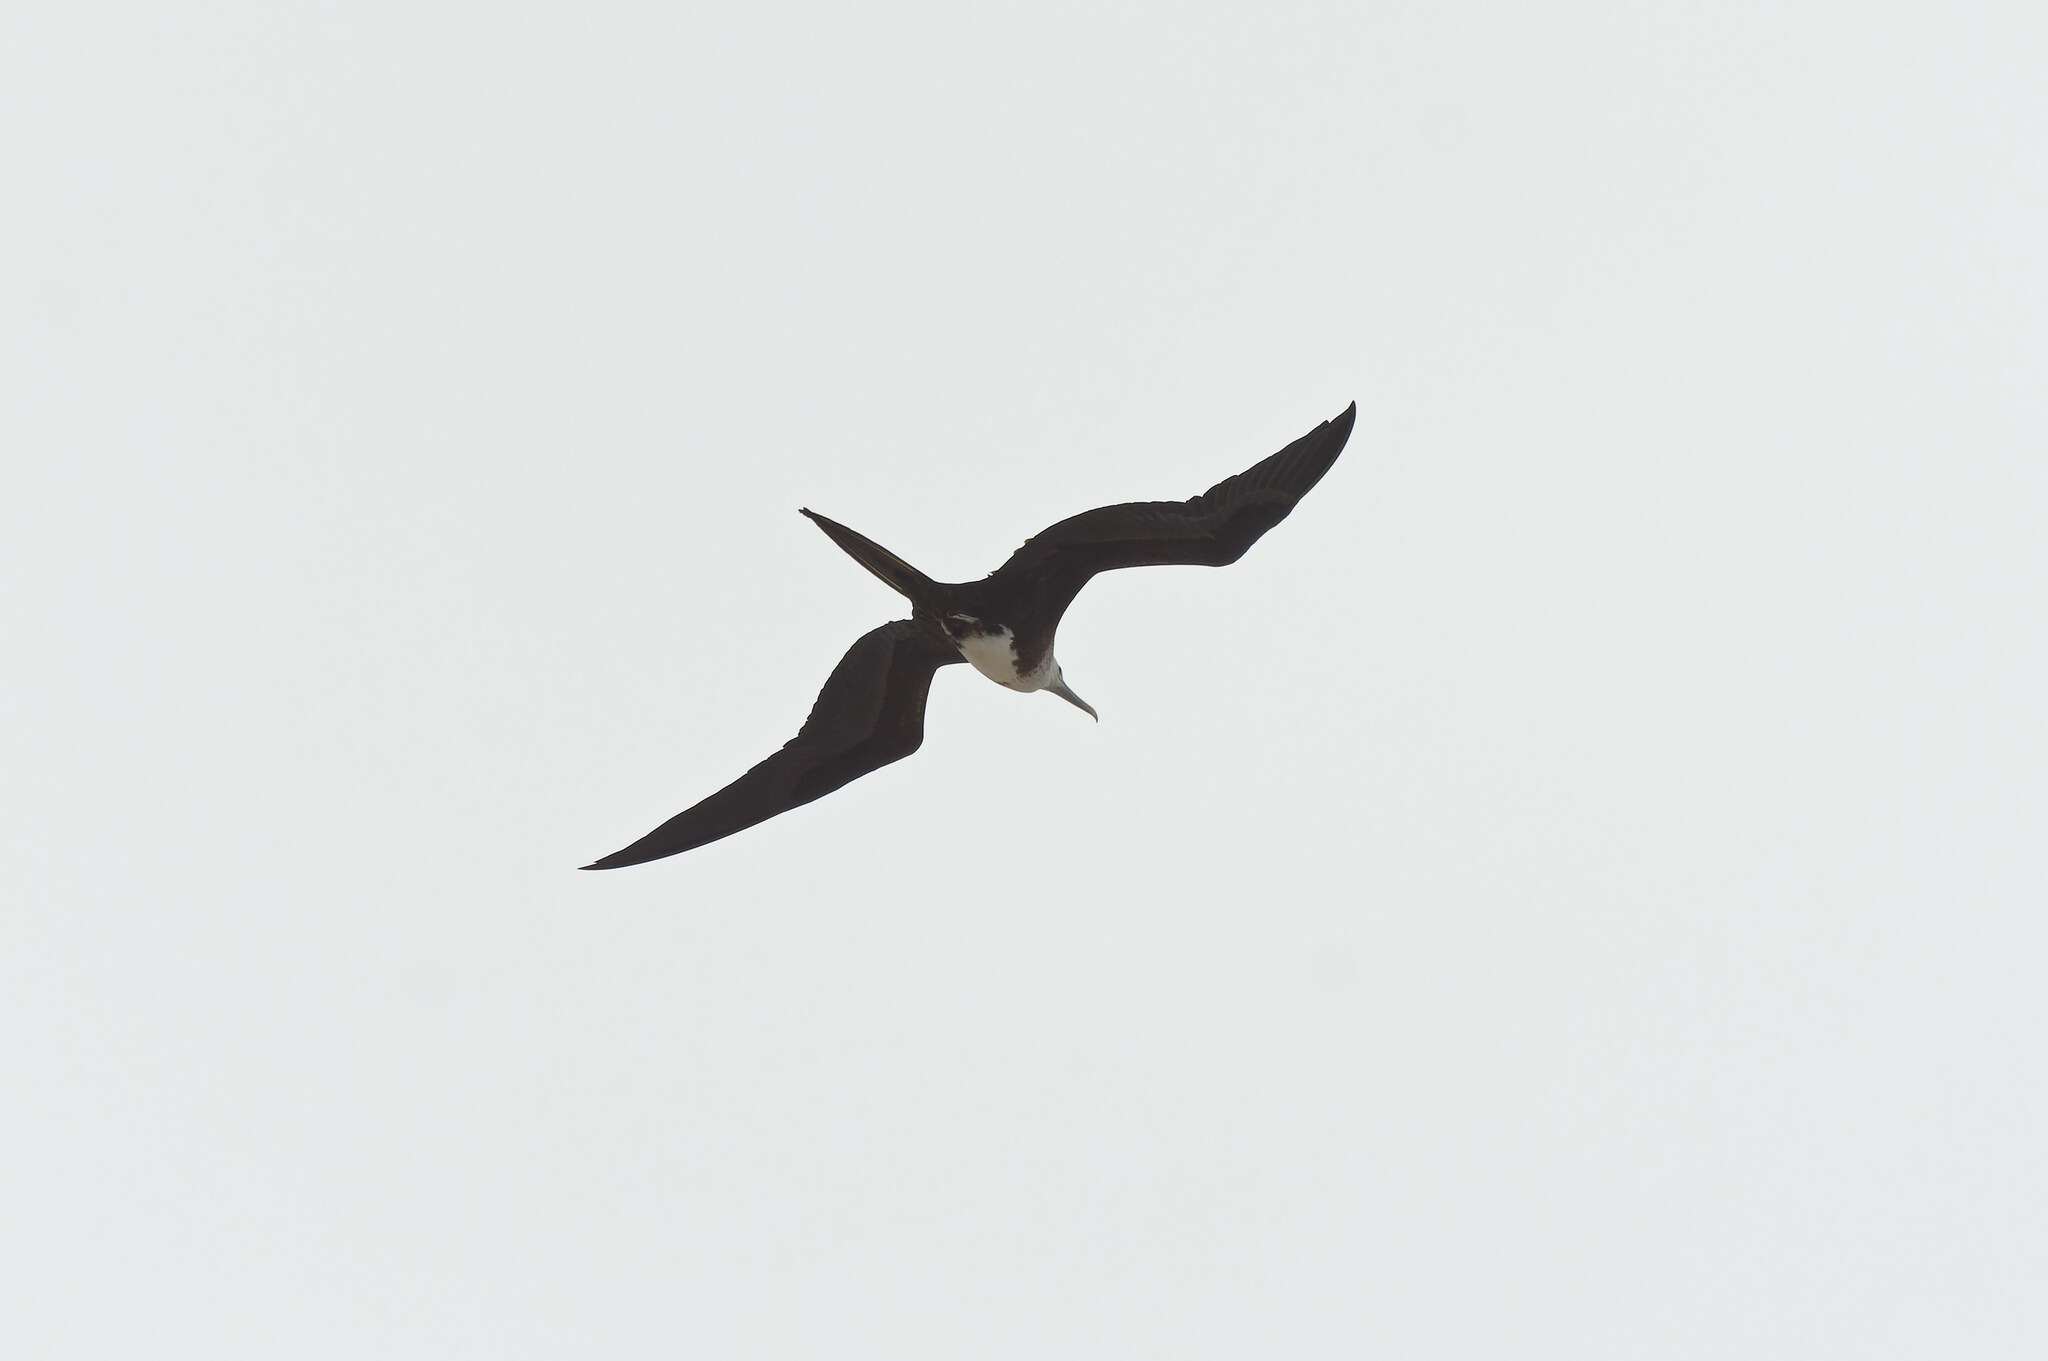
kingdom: Animalia
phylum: Chordata
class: Aves
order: Suliformes
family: Fregatidae
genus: Fregata
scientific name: Fregata magnificens
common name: Magnificent frigatebird
